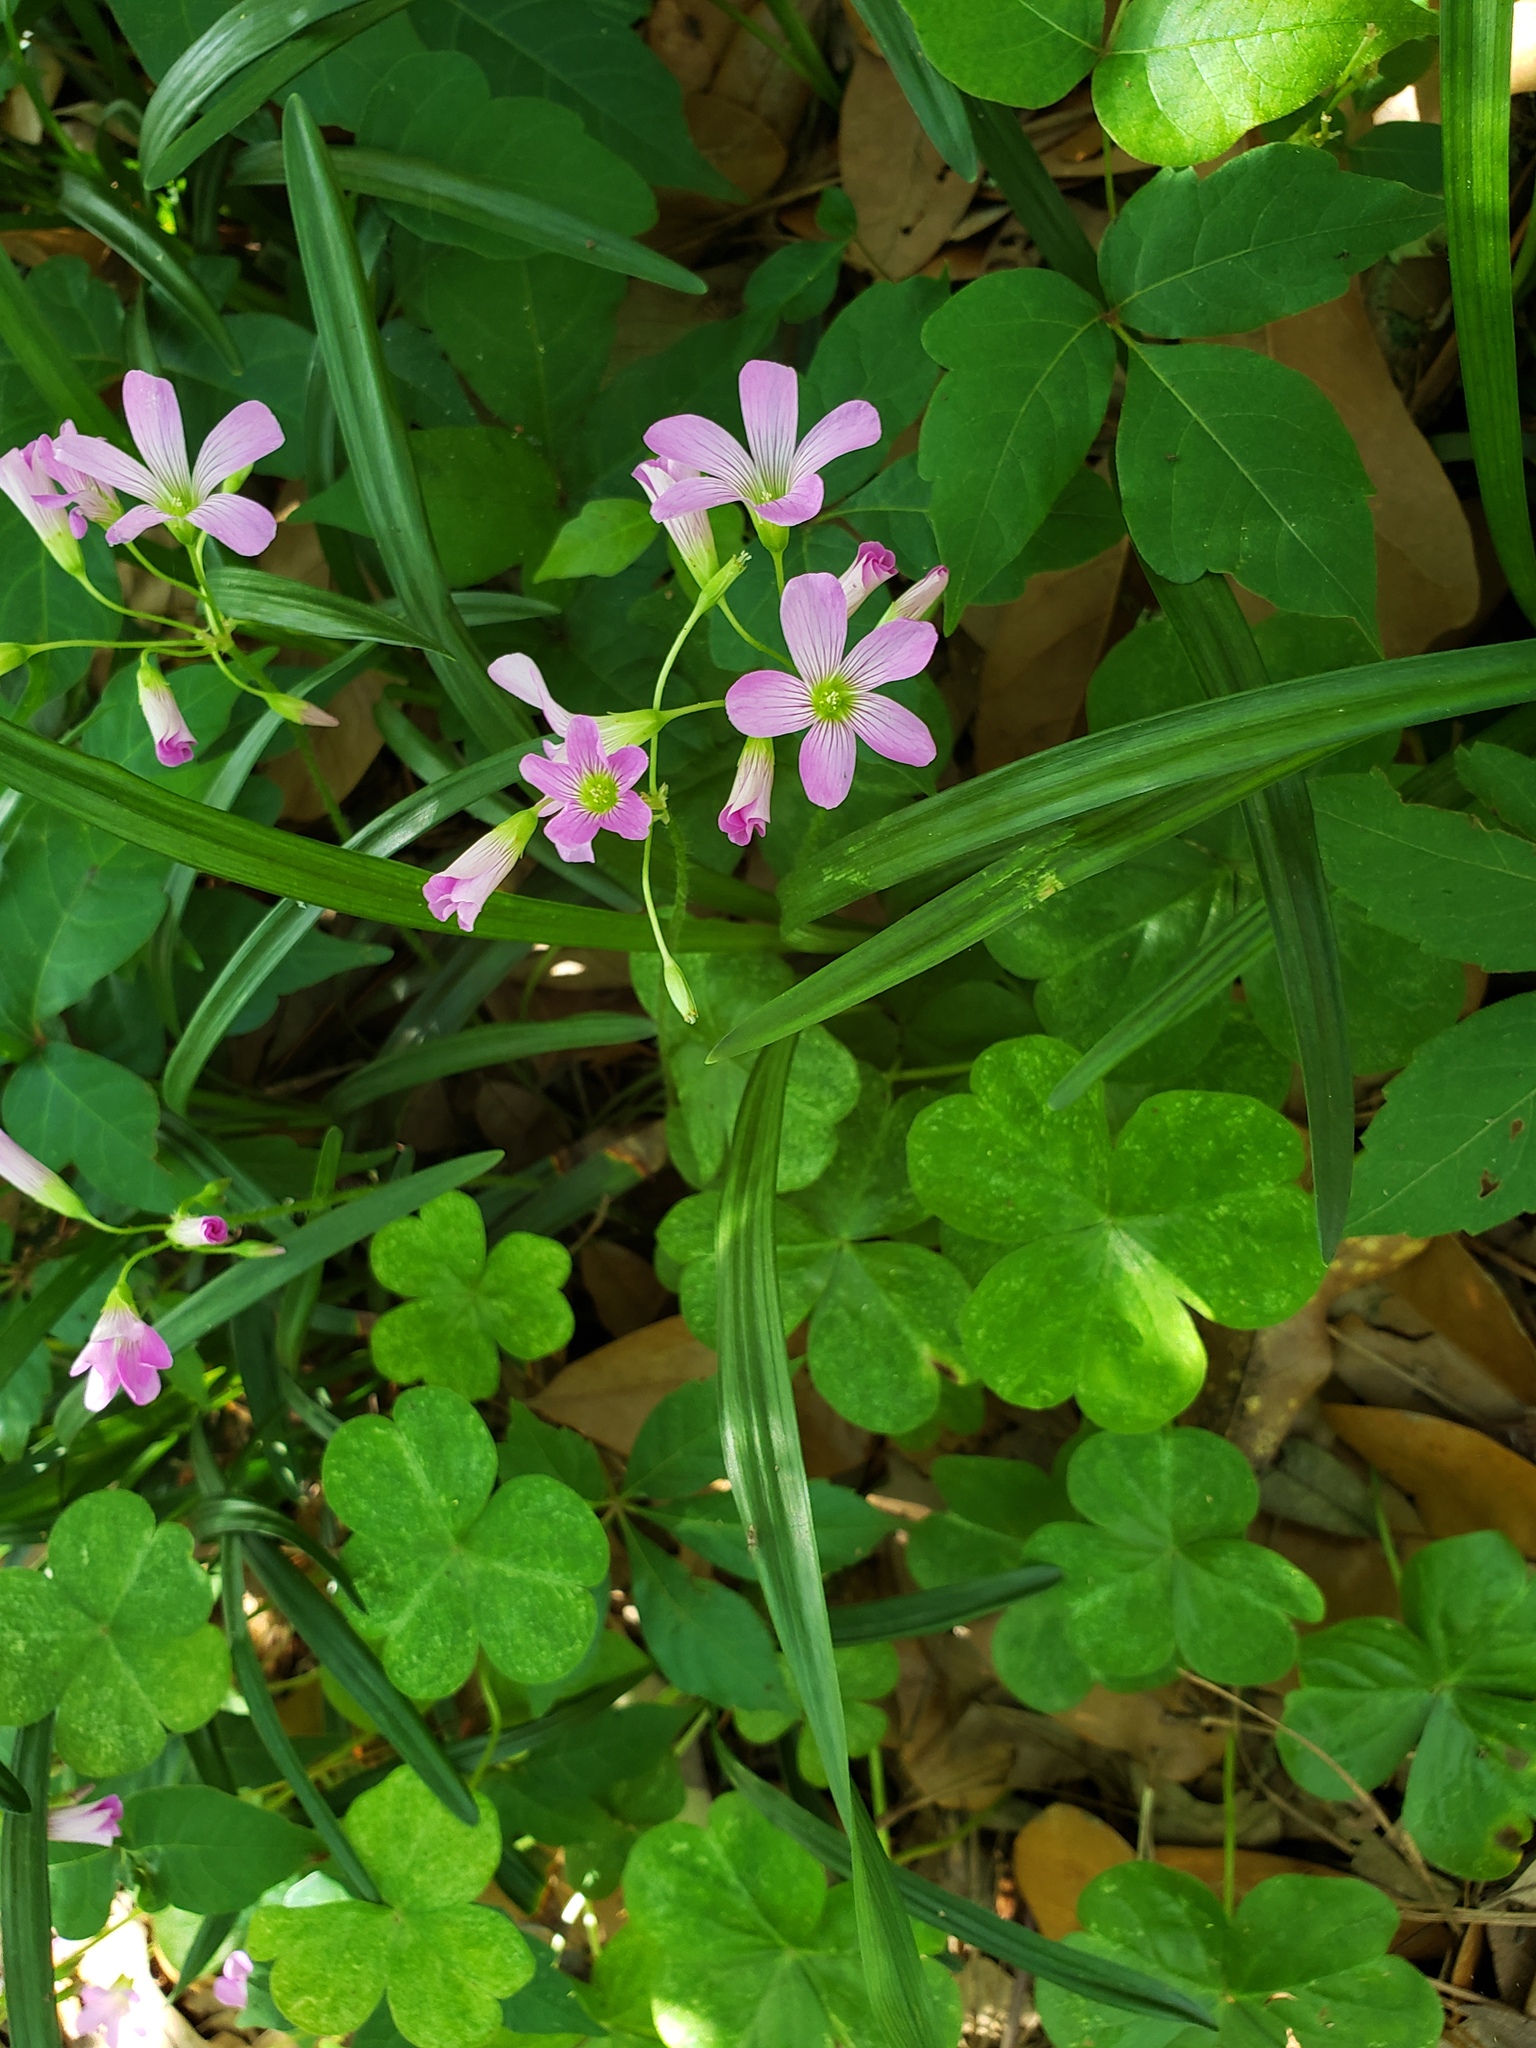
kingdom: Plantae
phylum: Tracheophyta
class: Magnoliopsida
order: Oxalidales
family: Oxalidaceae
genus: Oxalis
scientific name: Oxalis debilis
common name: Large-flowered pink-sorrel
